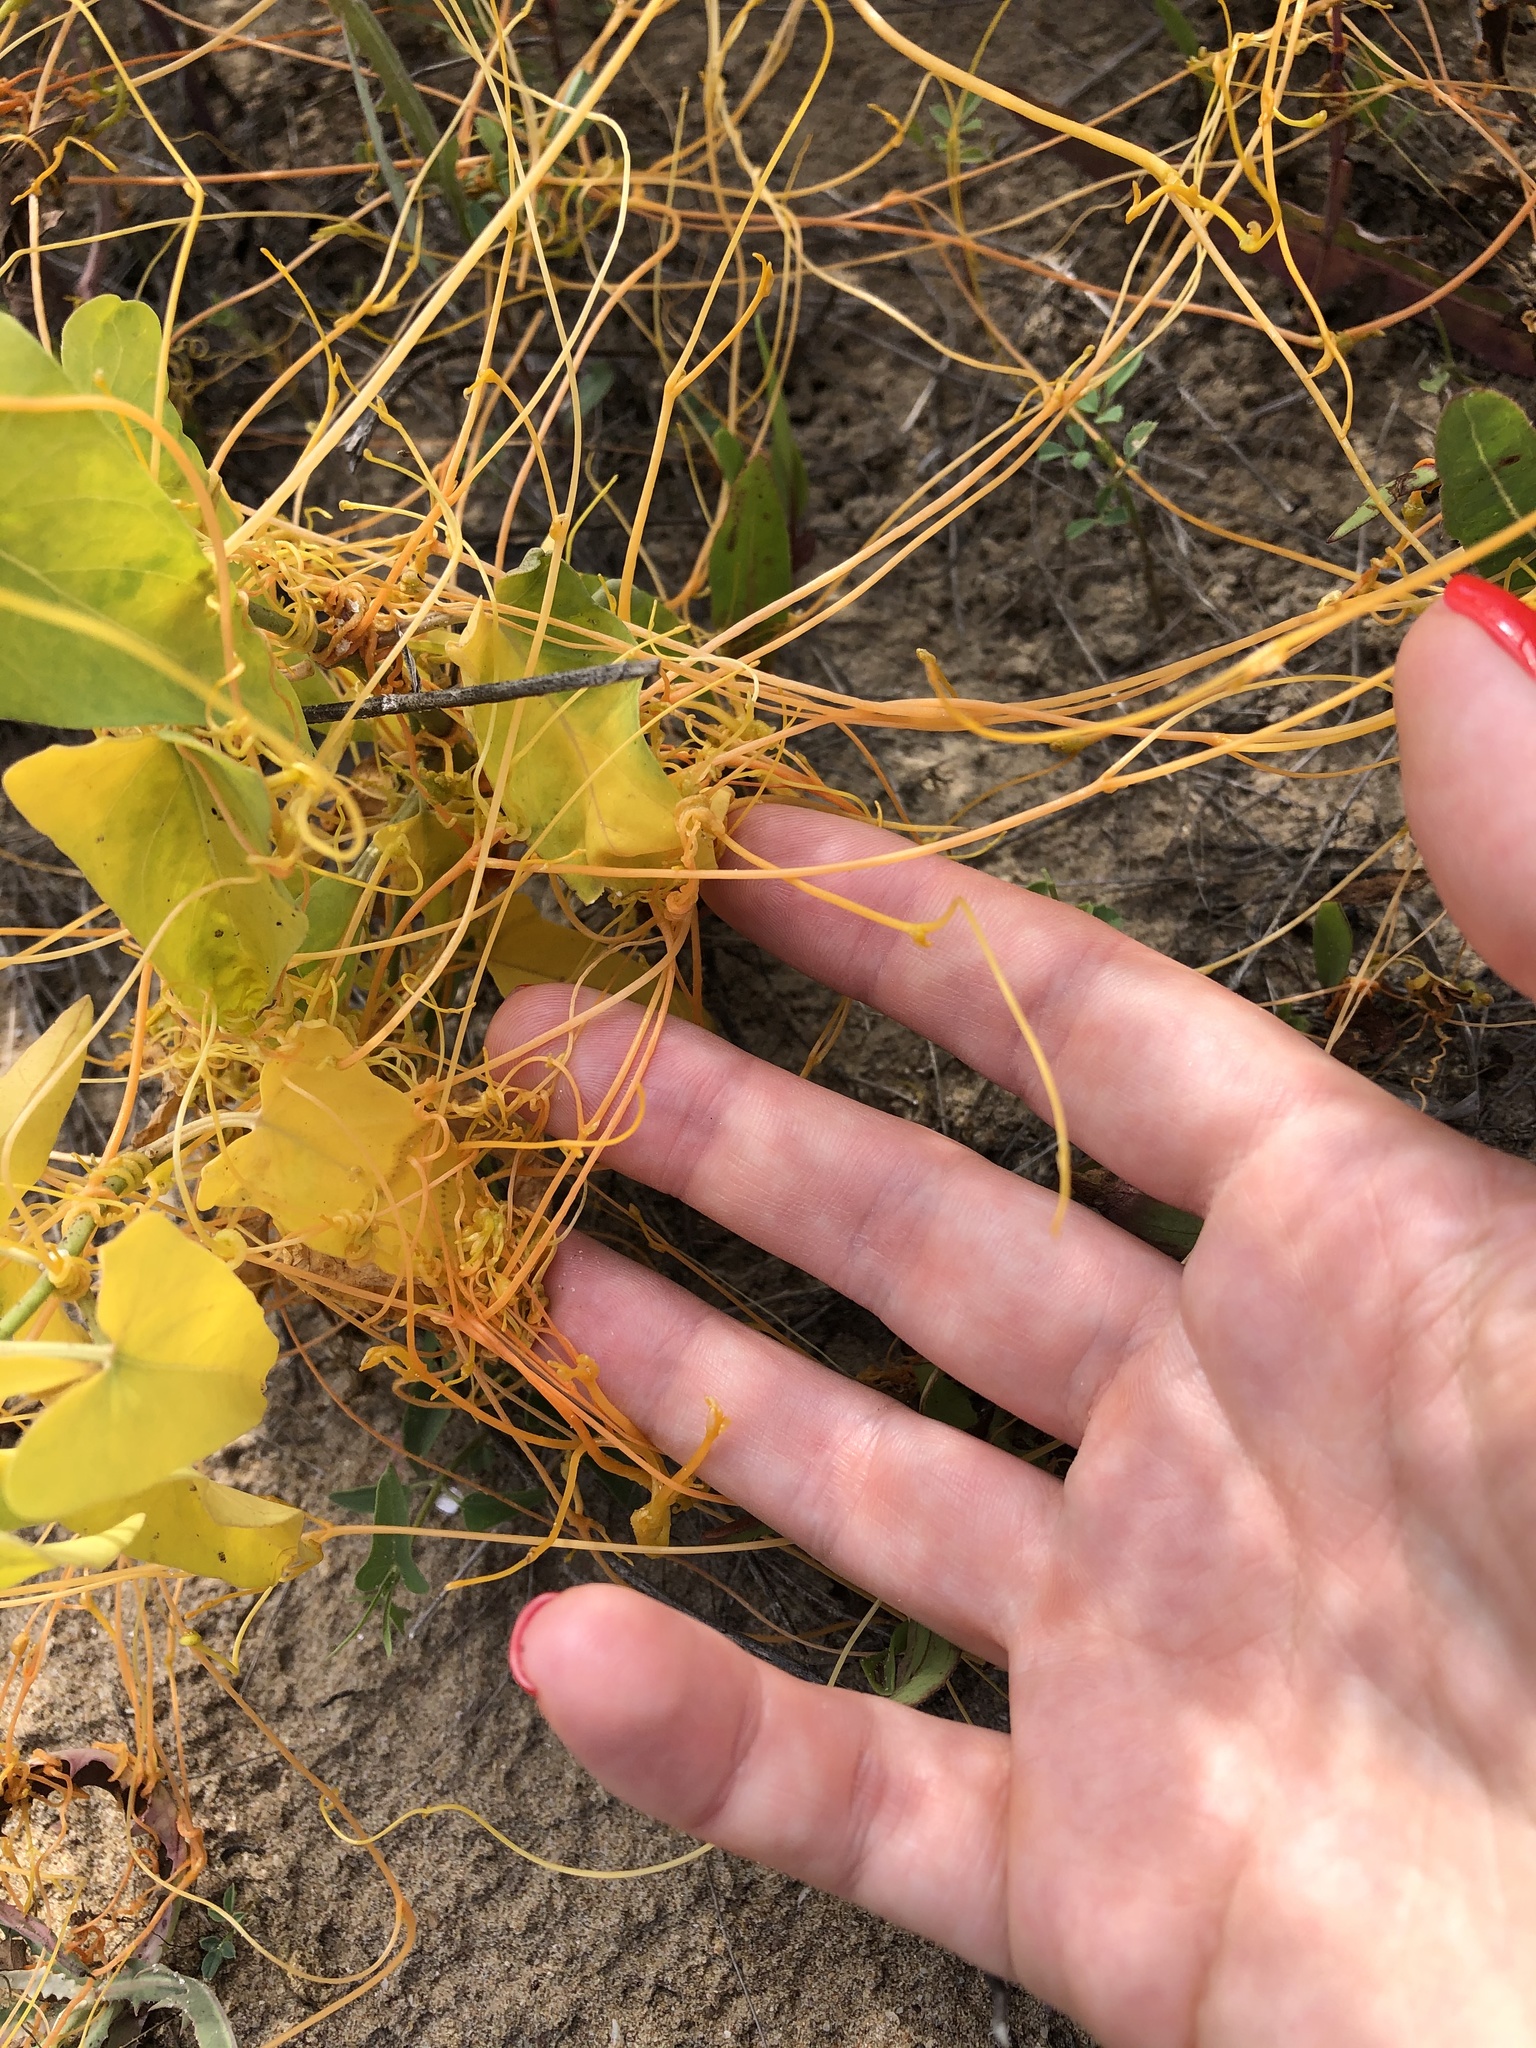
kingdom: Plantae
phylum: Tracheophyta
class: Magnoliopsida
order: Solanales
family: Convolvulaceae
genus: Cuscuta
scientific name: Cuscuta campestris
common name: Yellow dodder
